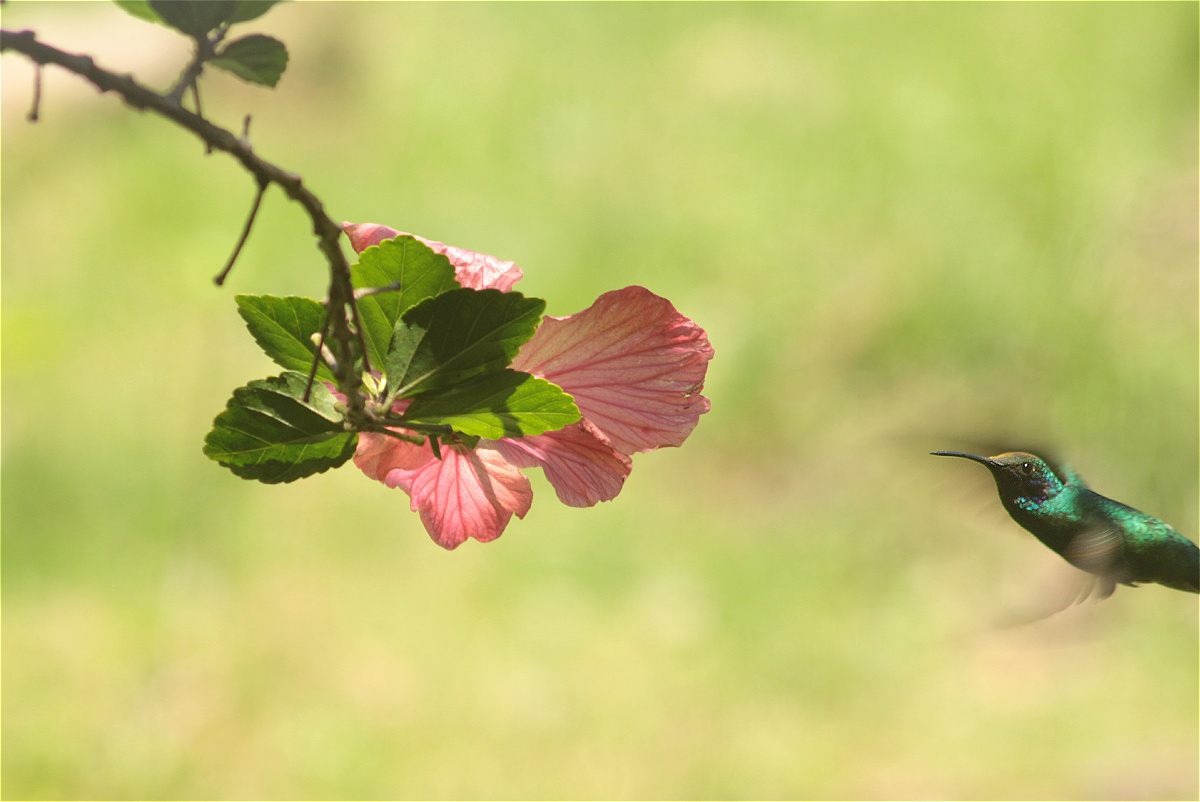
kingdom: Animalia
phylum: Chordata
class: Aves
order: Apodiformes
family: Trochilidae
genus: Colibri
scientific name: Colibri coruscans
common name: Sparkling violetear
